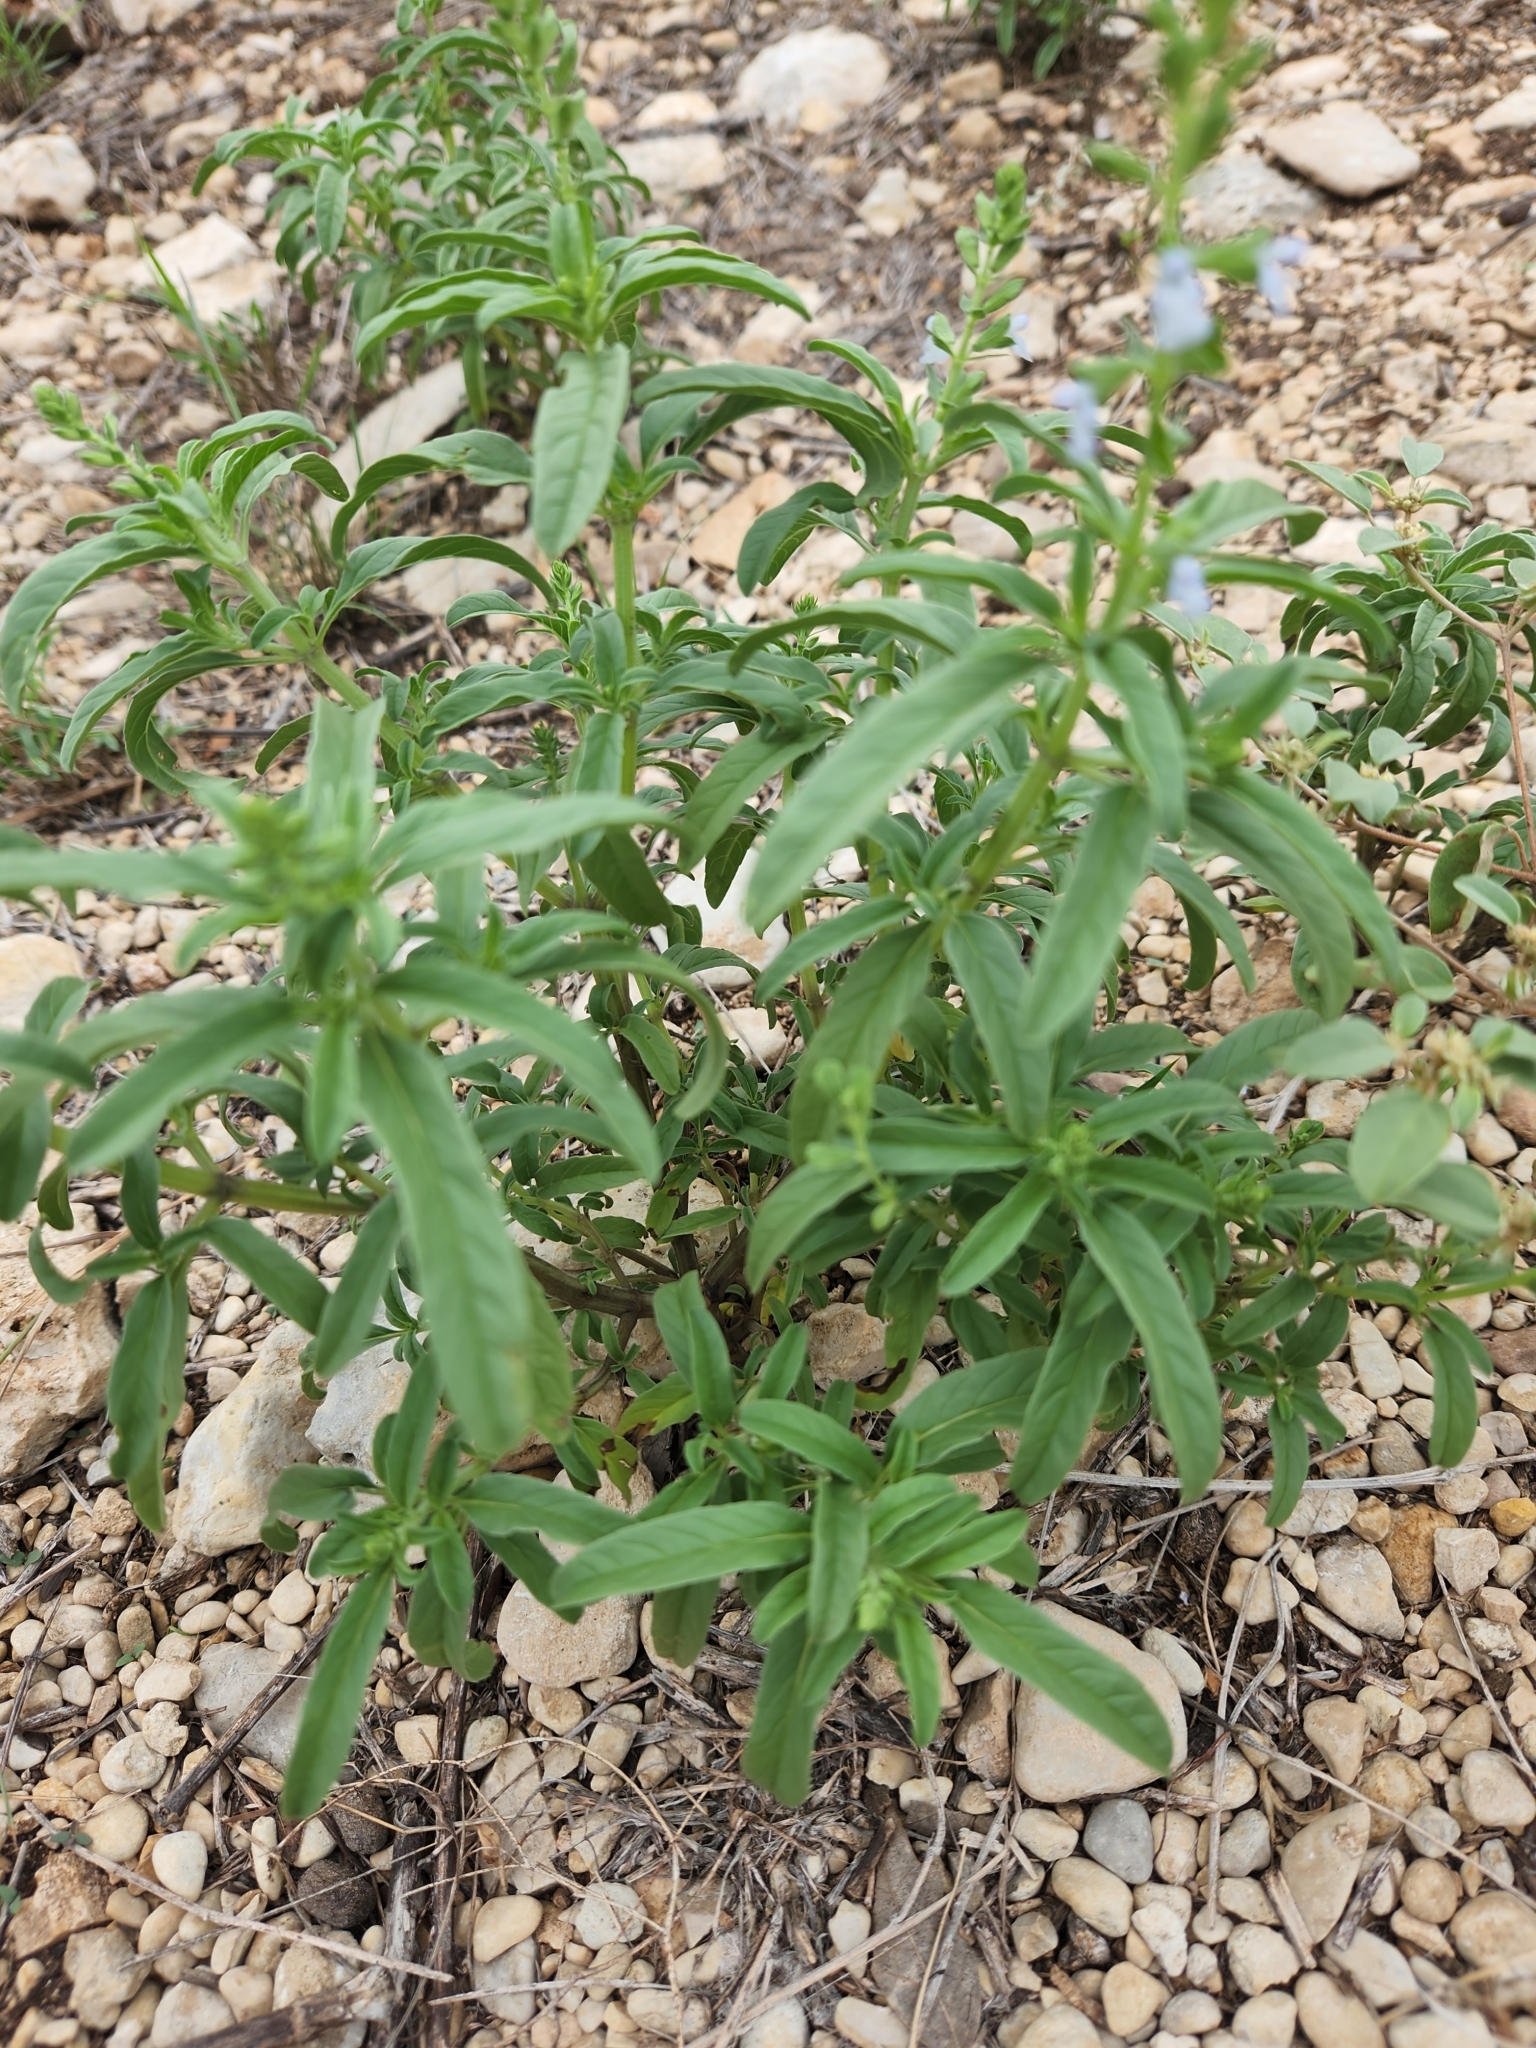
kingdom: Plantae
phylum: Tracheophyta
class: Magnoliopsida
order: Lamiales
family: Lamiaceae
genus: Salvia
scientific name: Salvia reflexa
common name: Mintweed
